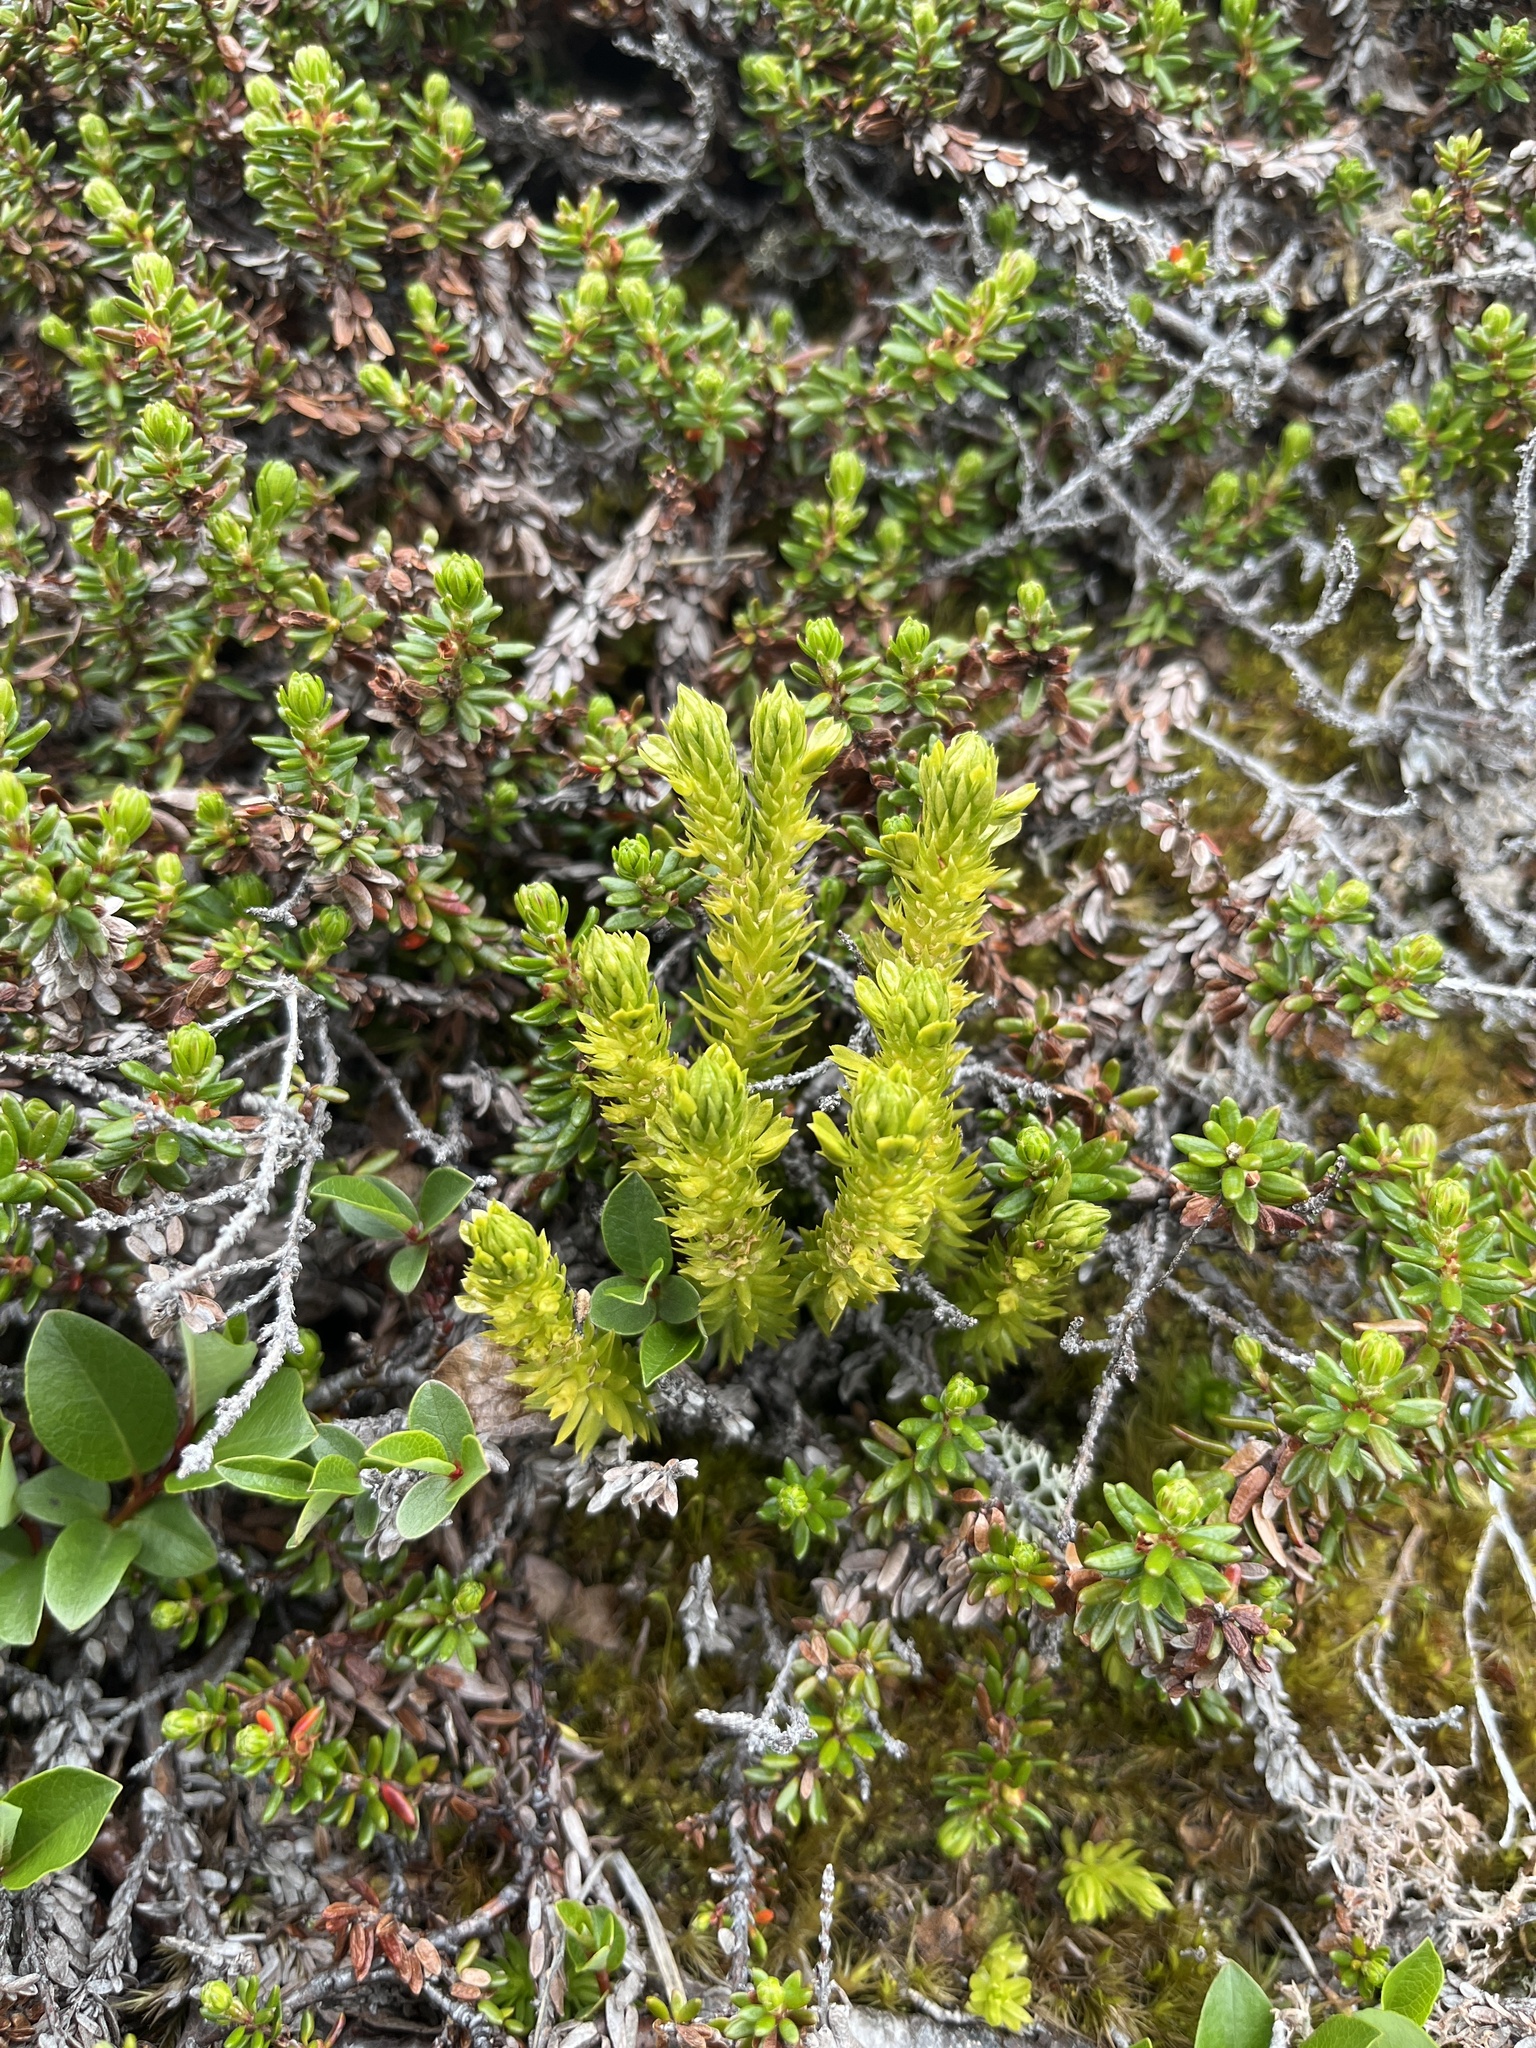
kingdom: Plantae
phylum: Tracheophyta
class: Lycopodiopsida
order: Lycopodiales
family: Lycopodiaceae
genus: Huperzia
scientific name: Huperzia selago
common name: Northern firmoss
